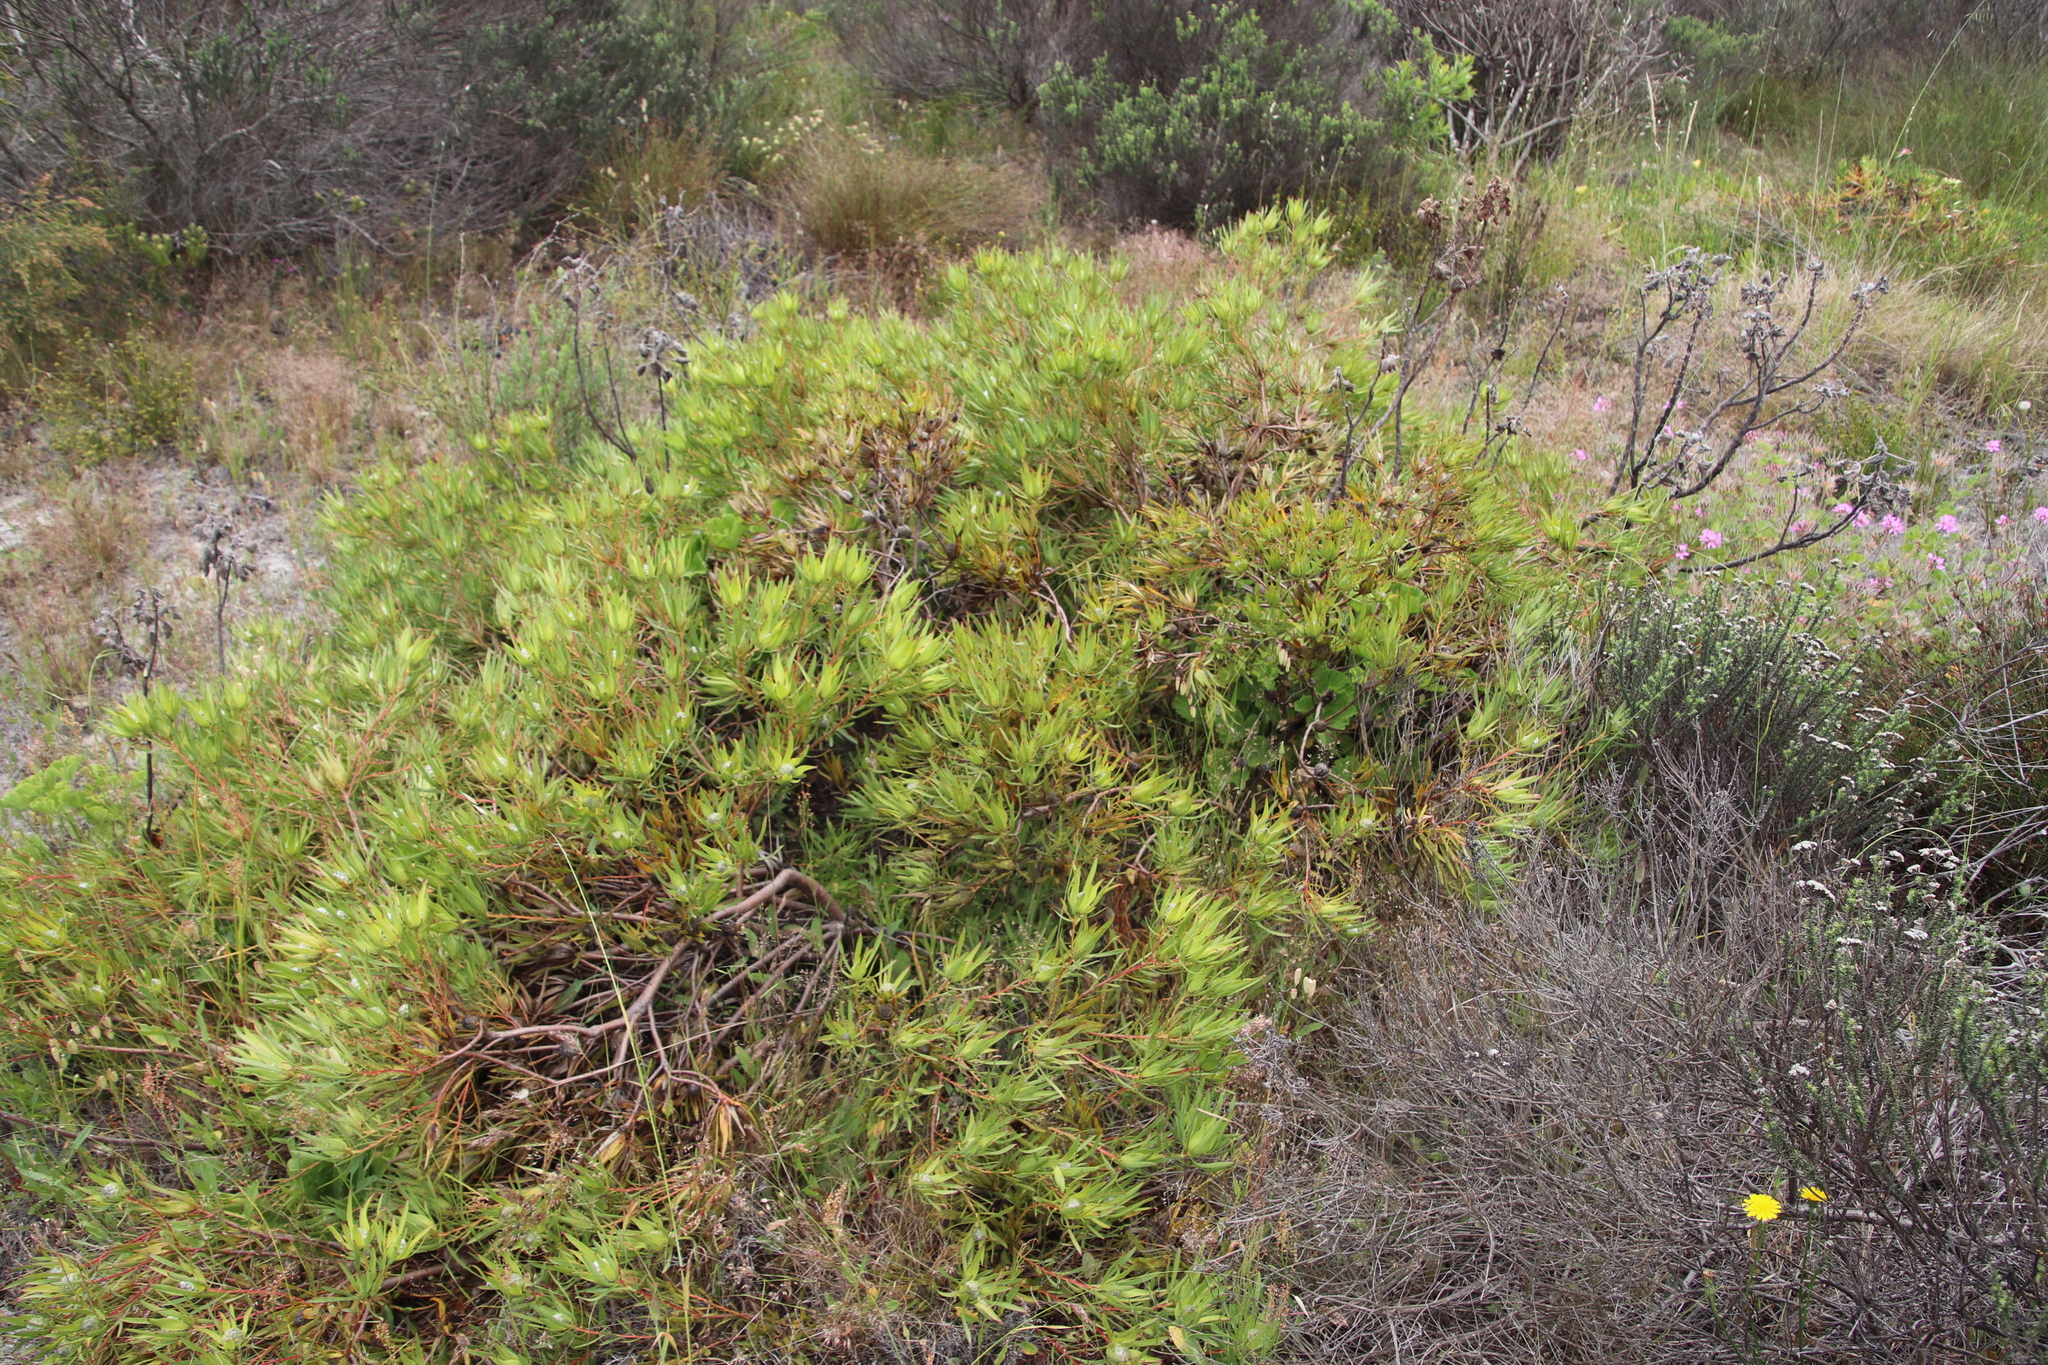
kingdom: Plantae
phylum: Tracheophyta
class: Magnoliopsida
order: Proteales
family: Proteaceae
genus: Leucadendron
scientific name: Leucadendron salignum
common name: Common sunshine conebush
